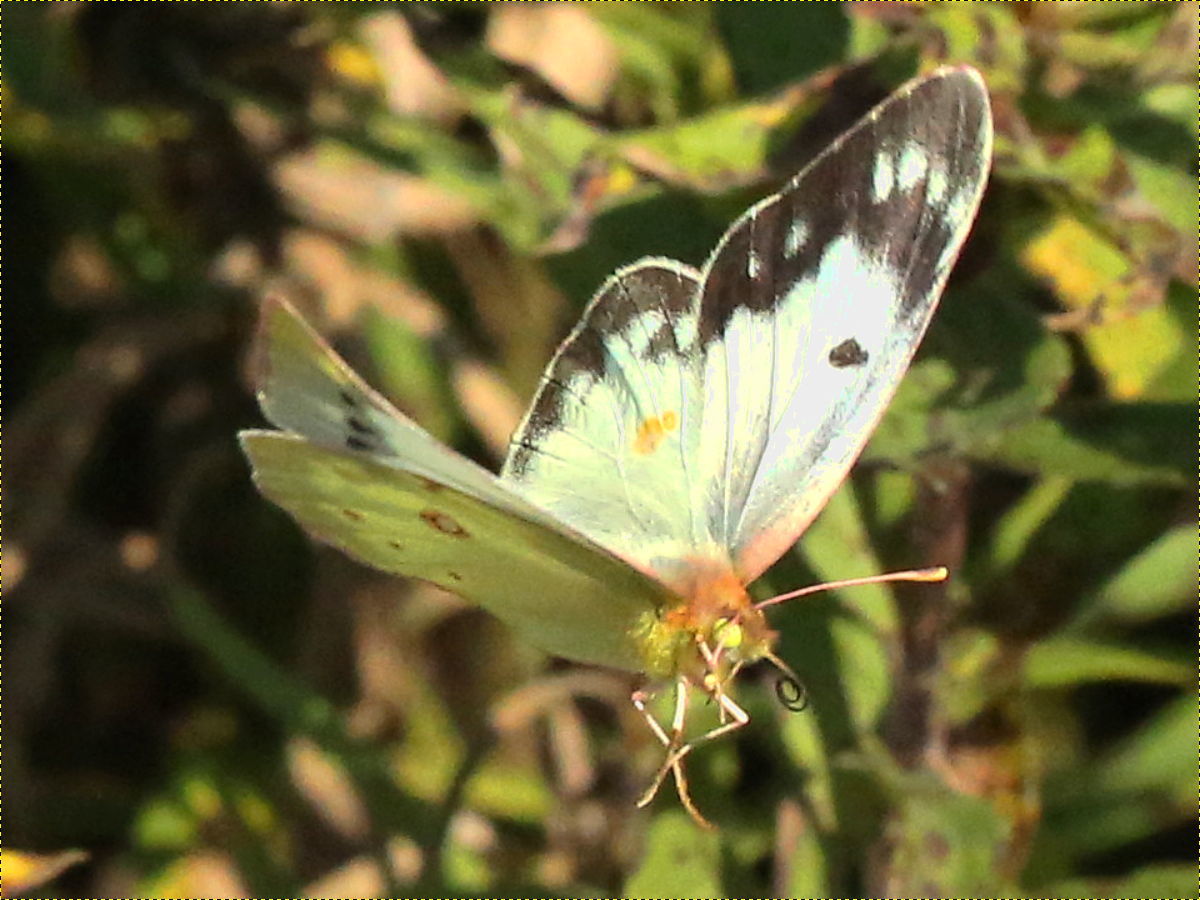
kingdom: Animalia
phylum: Arthropoda
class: Insecta
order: Lepidoptera
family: Pieridae
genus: Colias
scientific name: Colias eurytheme
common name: Alfalfa butterfly
